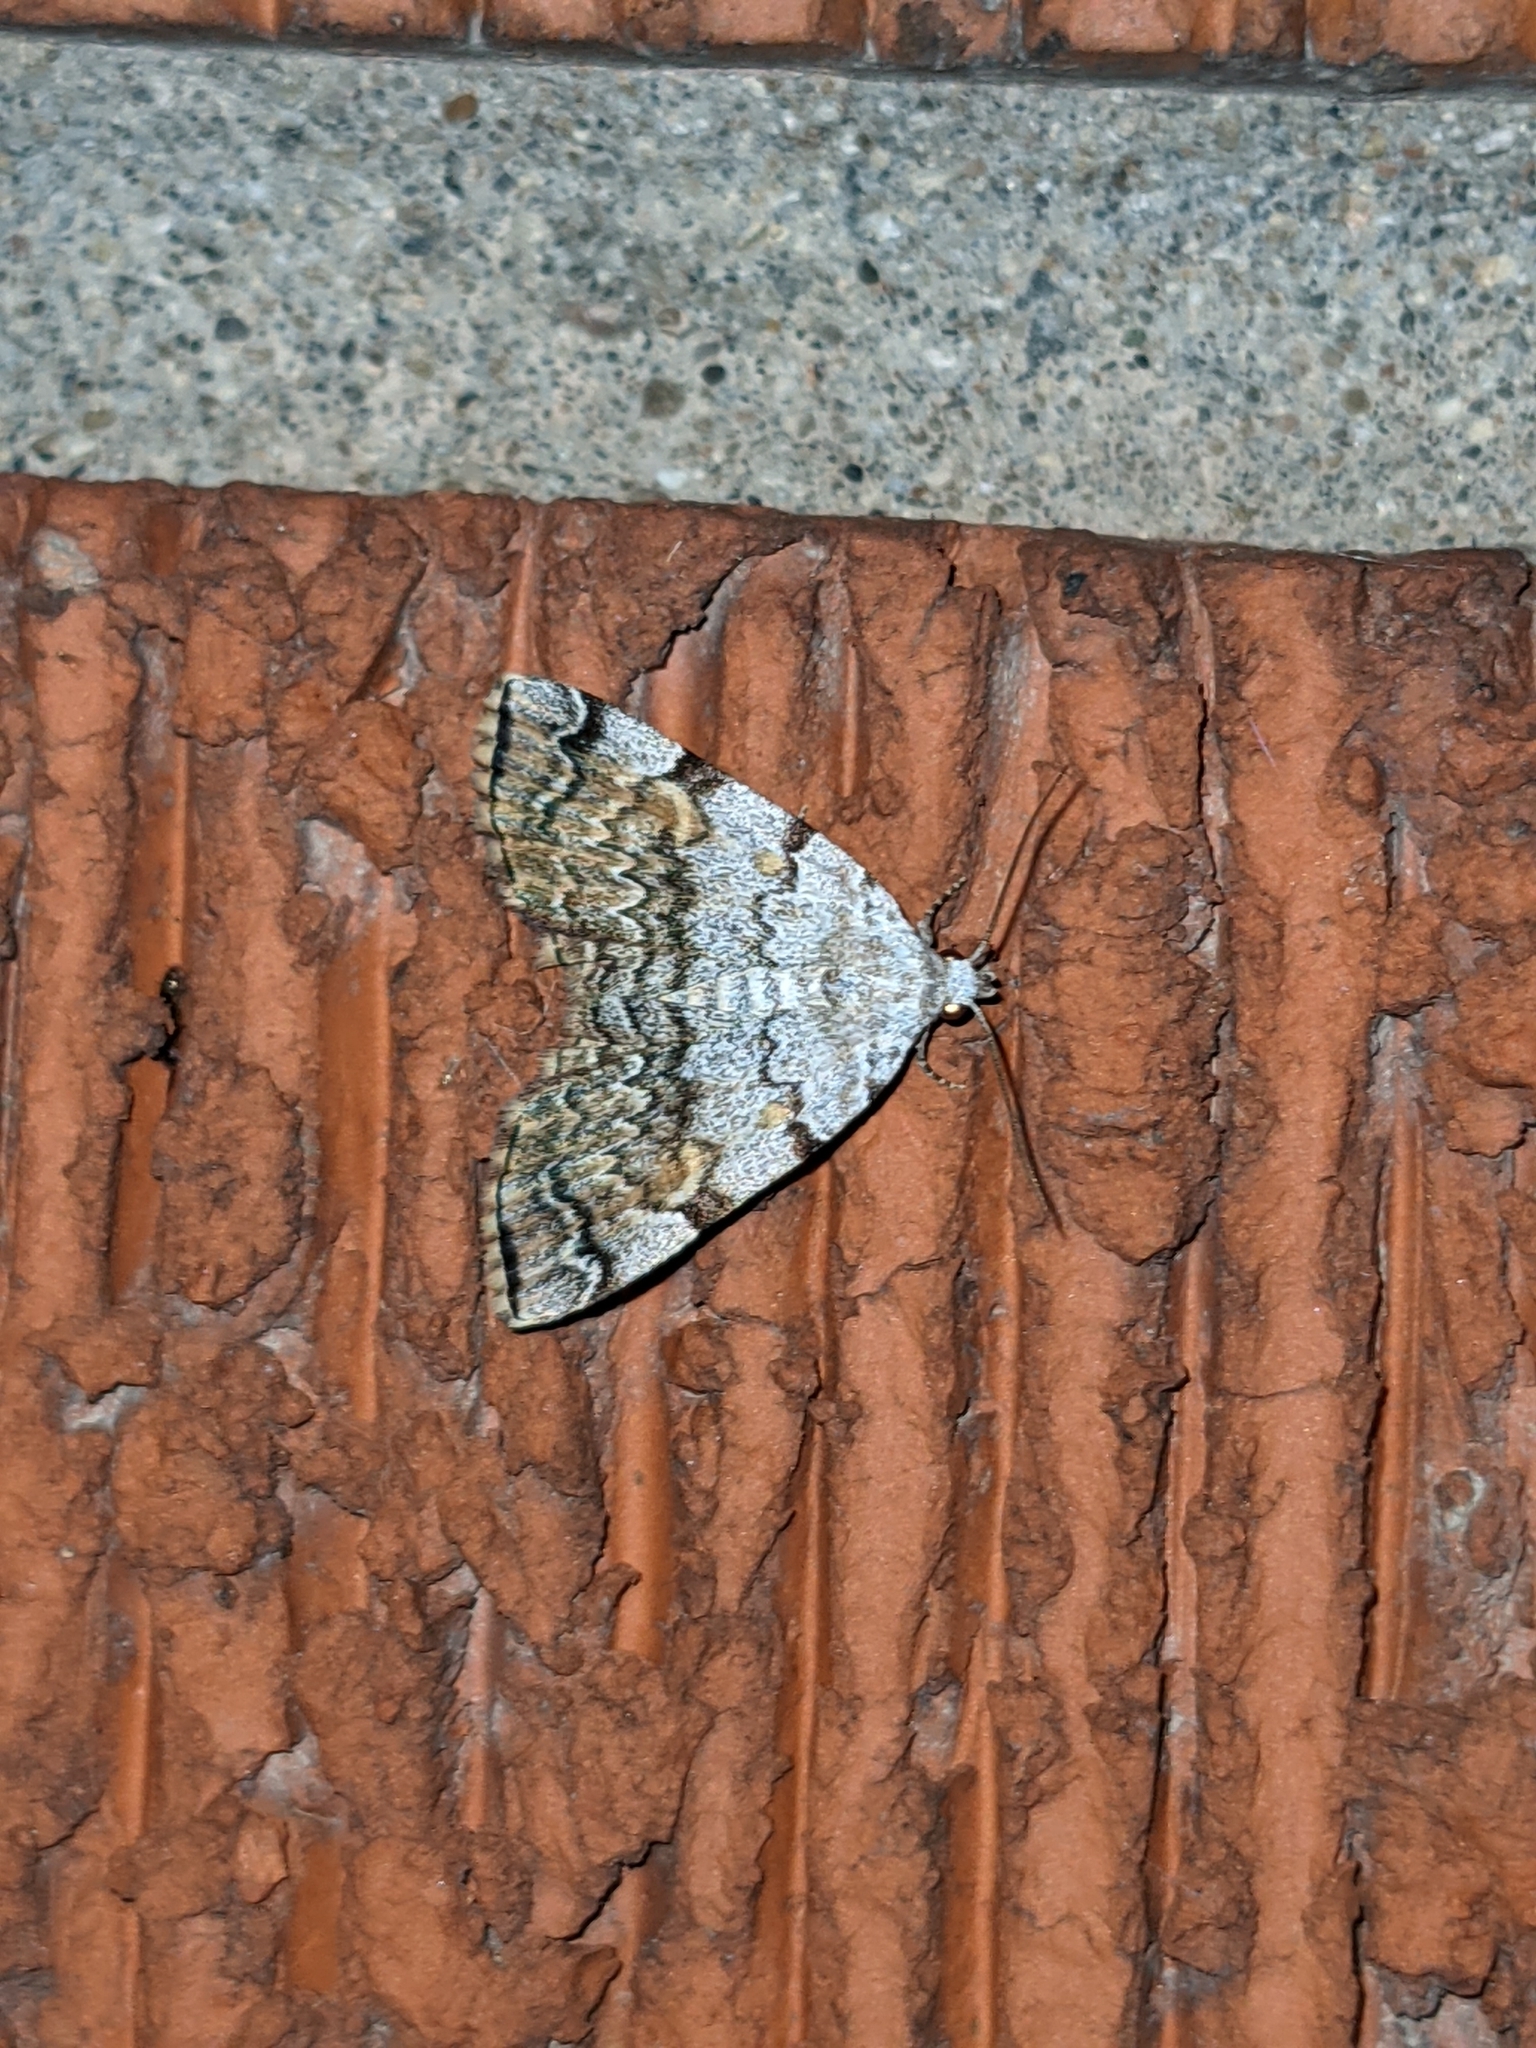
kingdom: Animalia
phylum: Arthropoda
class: Insecta
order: Lepidoptera
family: Erebidae
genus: Idia
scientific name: Idia americalis
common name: American idia moth
